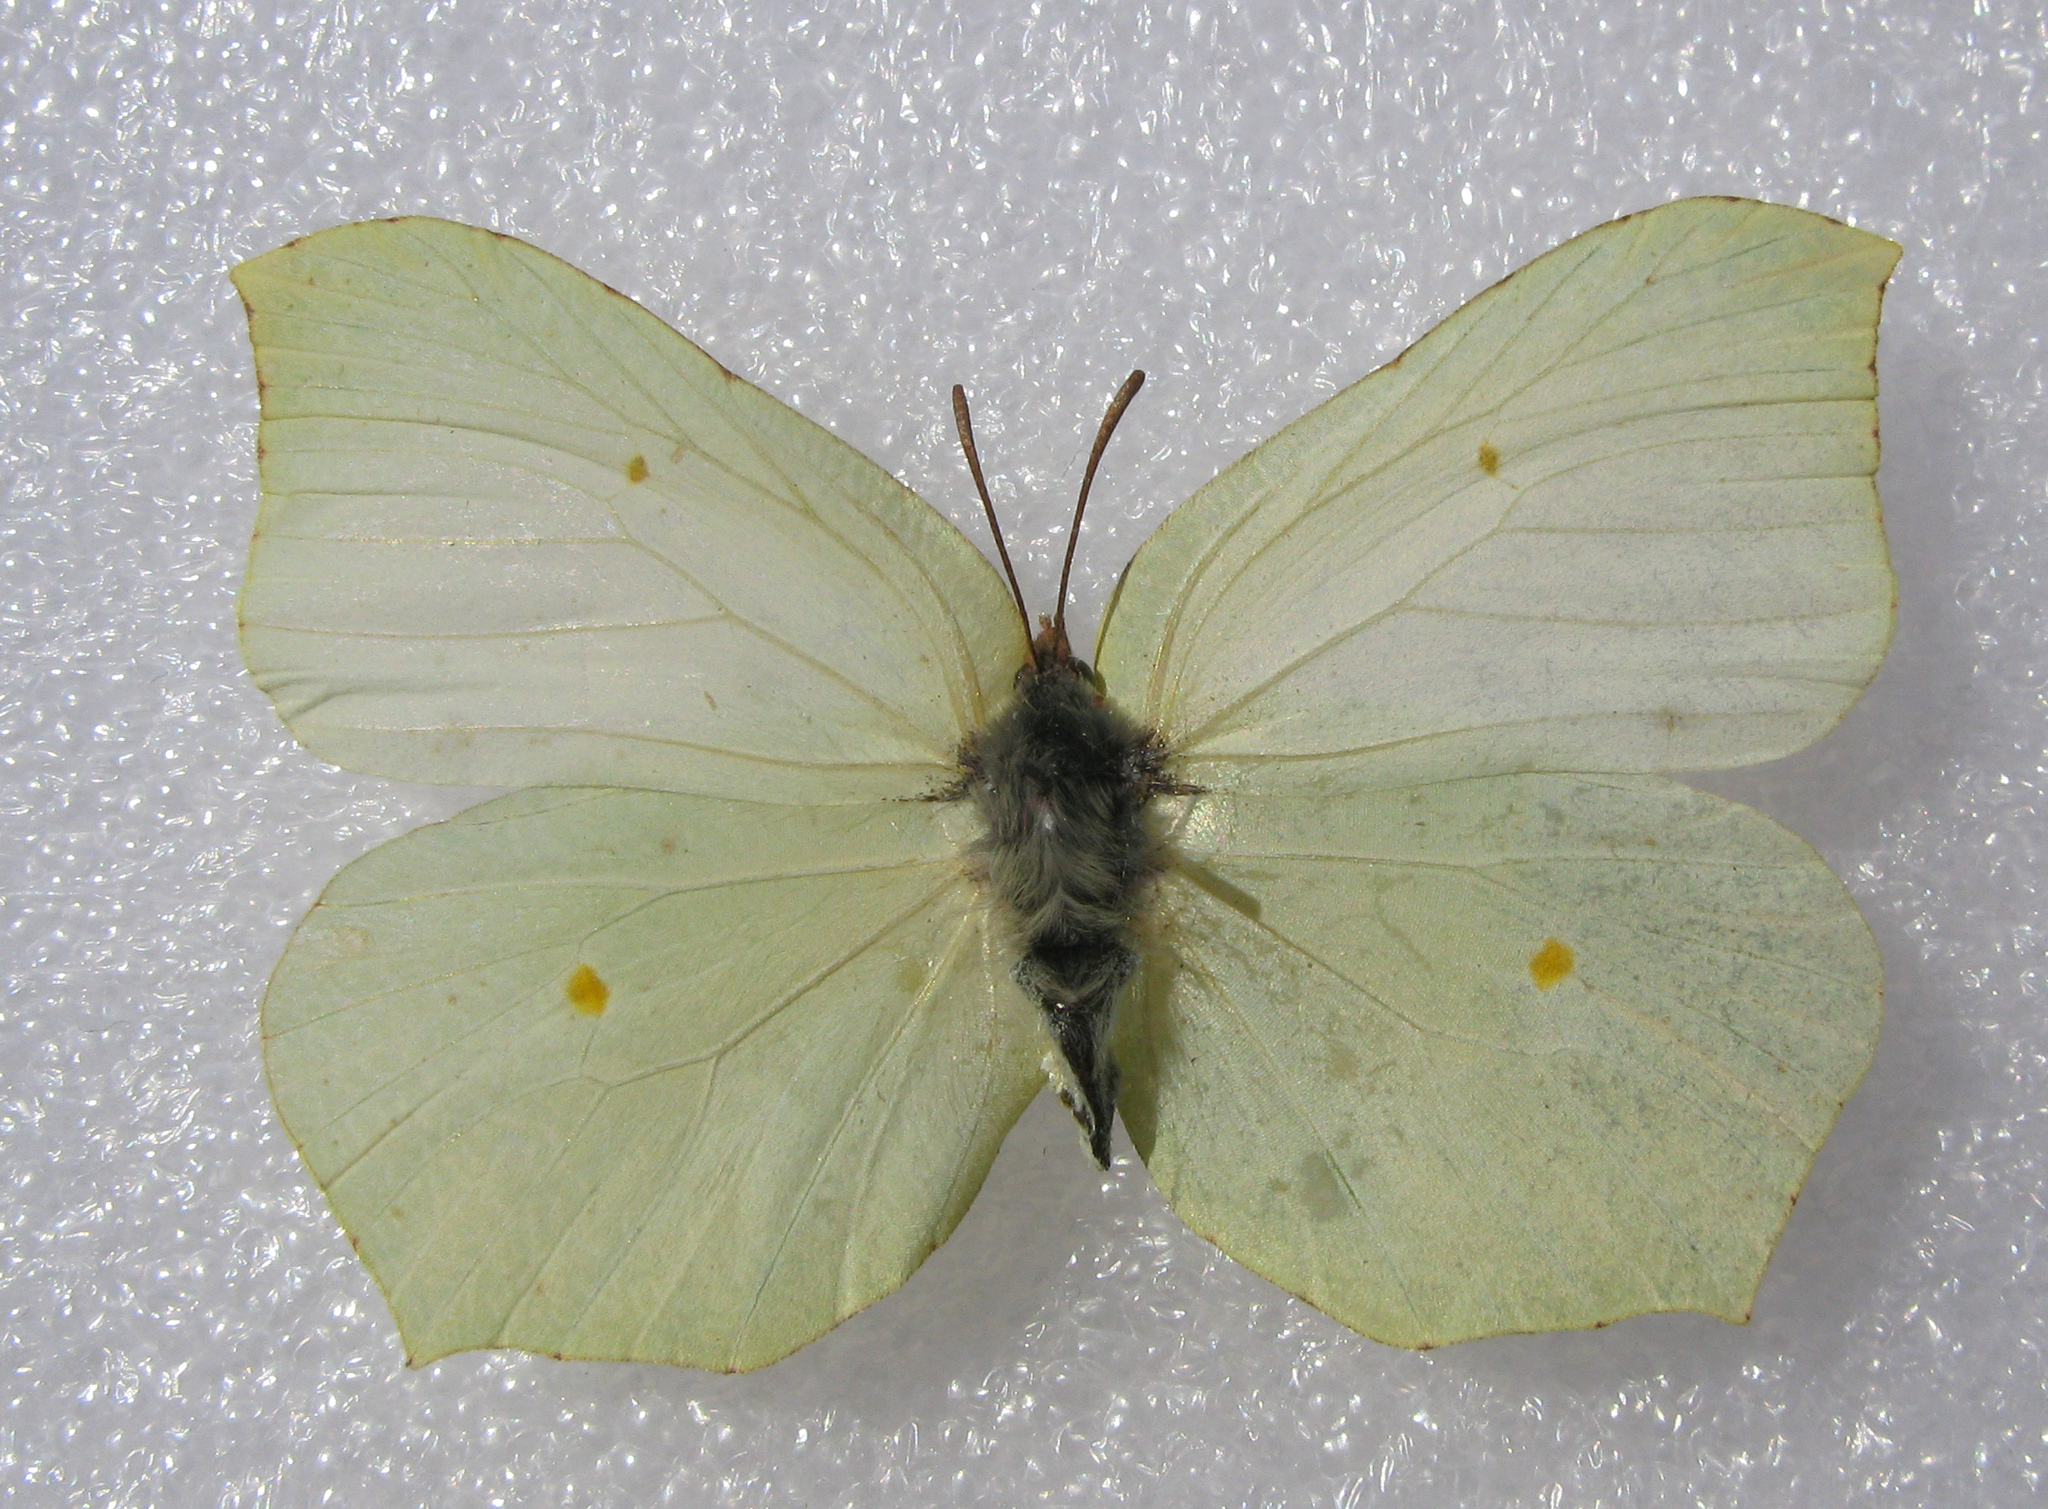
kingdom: Animalia
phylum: Arthropoda
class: Insecta
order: Lepidoptera
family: Pieridae
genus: Gonepteryx
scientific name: Gonepteryx rhamni
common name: Brimstone
